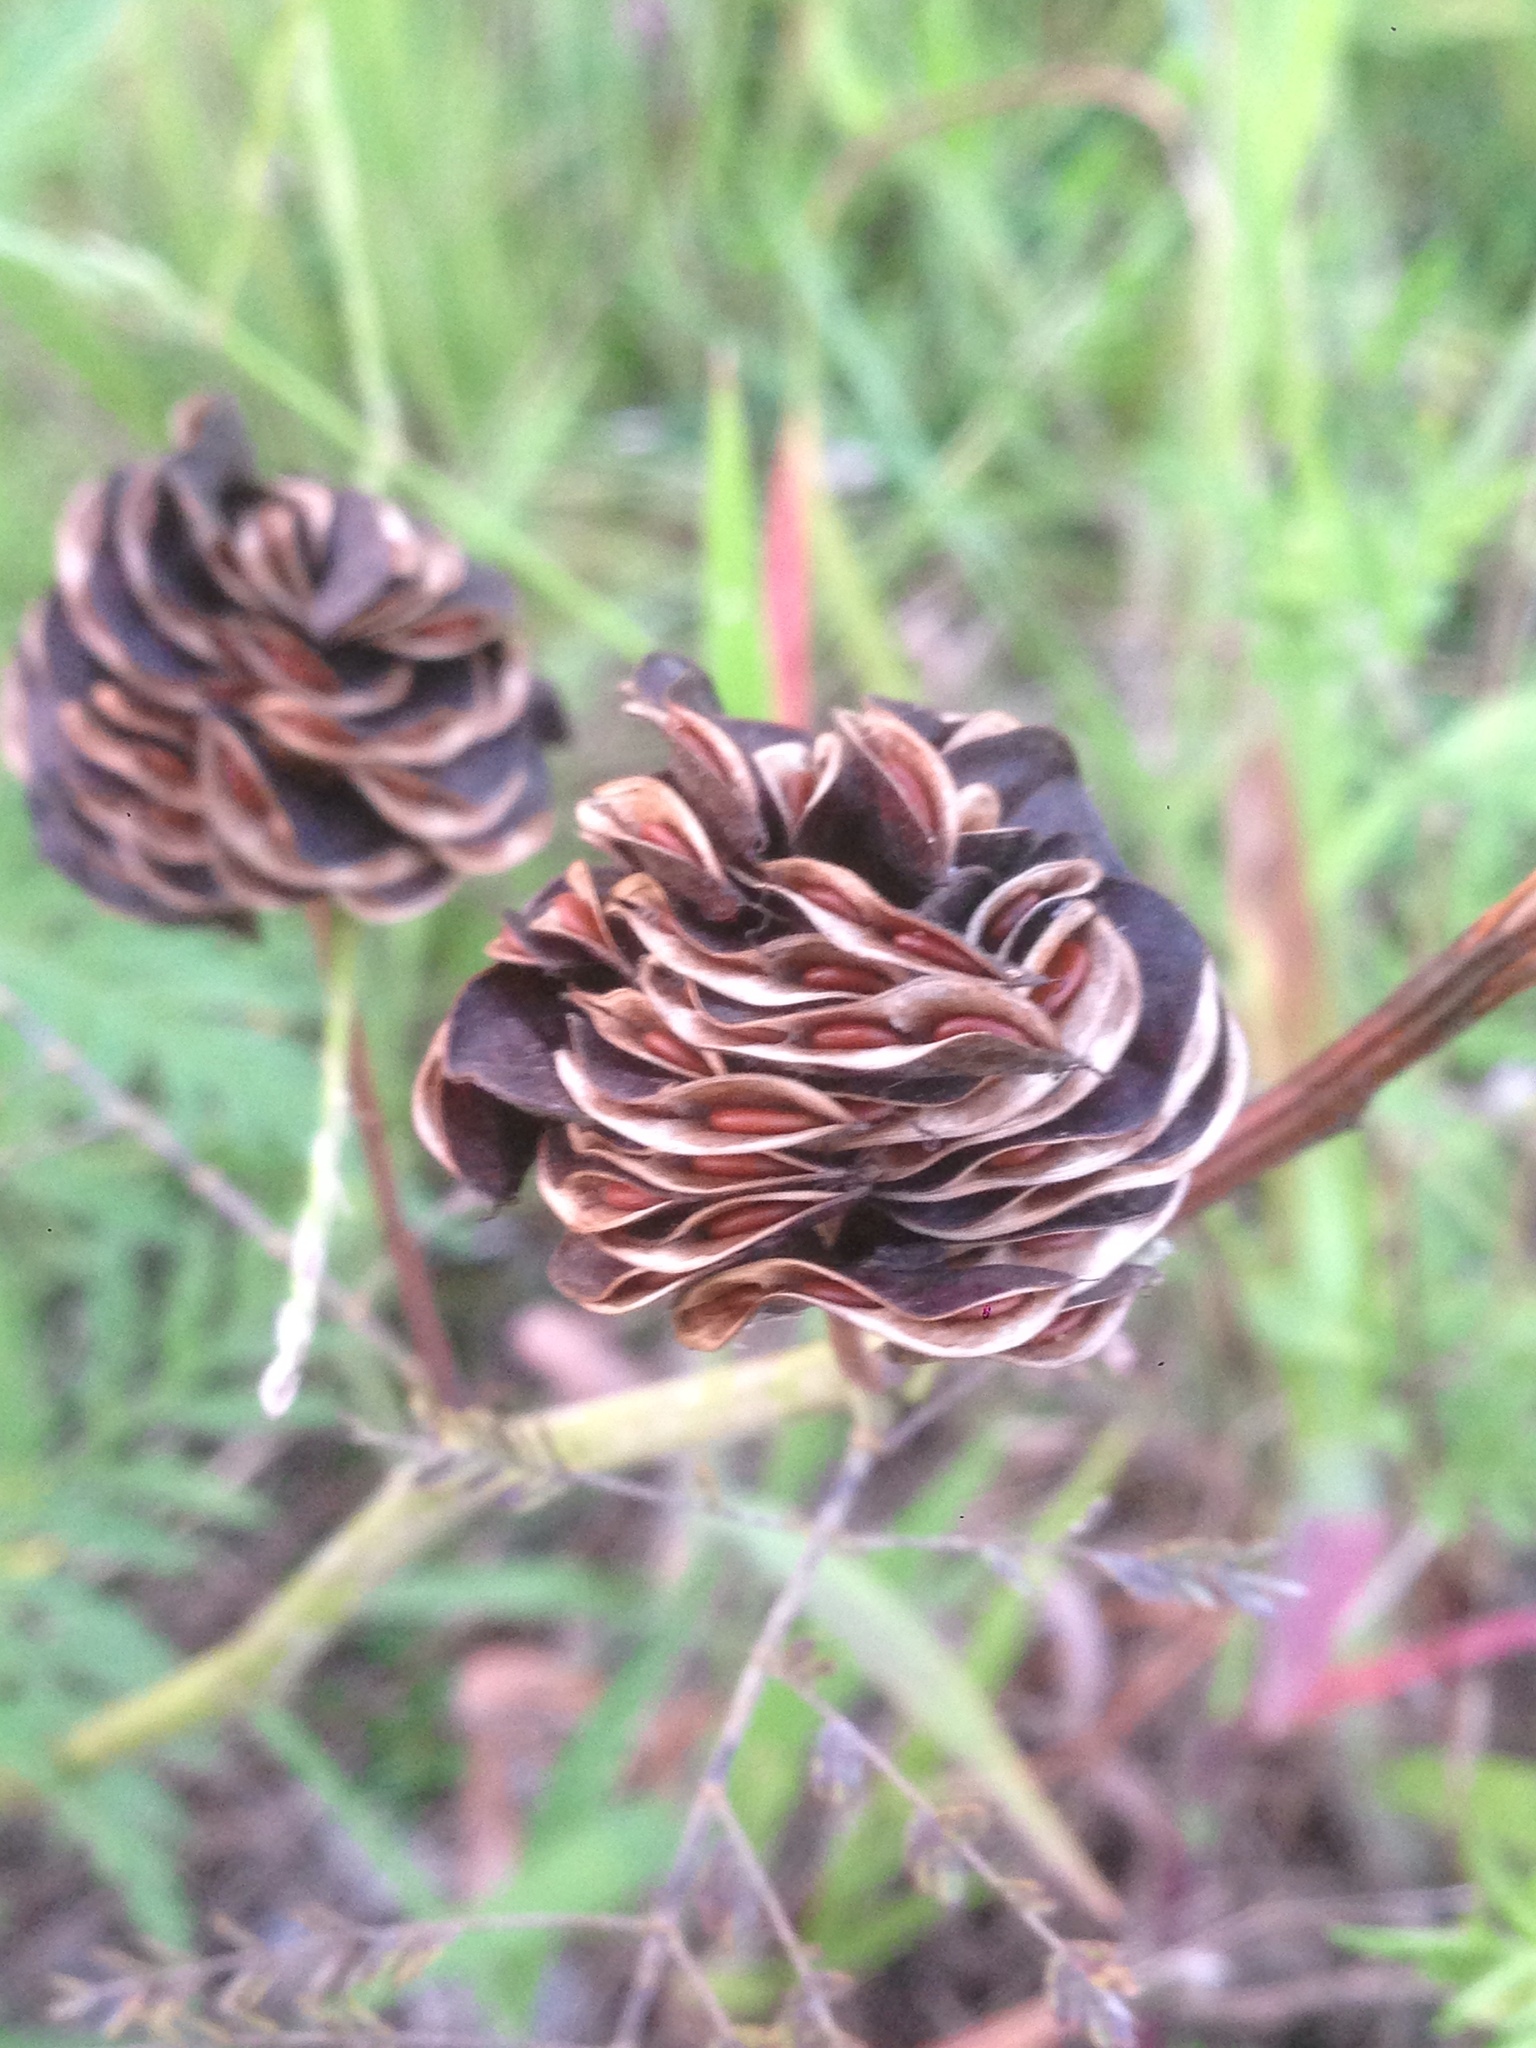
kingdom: Plantae
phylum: Tracheophyta
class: Magnoliopsida
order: Fabales
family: Fabaceae
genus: Desmanthus
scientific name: Desmanthus illinoensis
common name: Illinois bundle-flower
